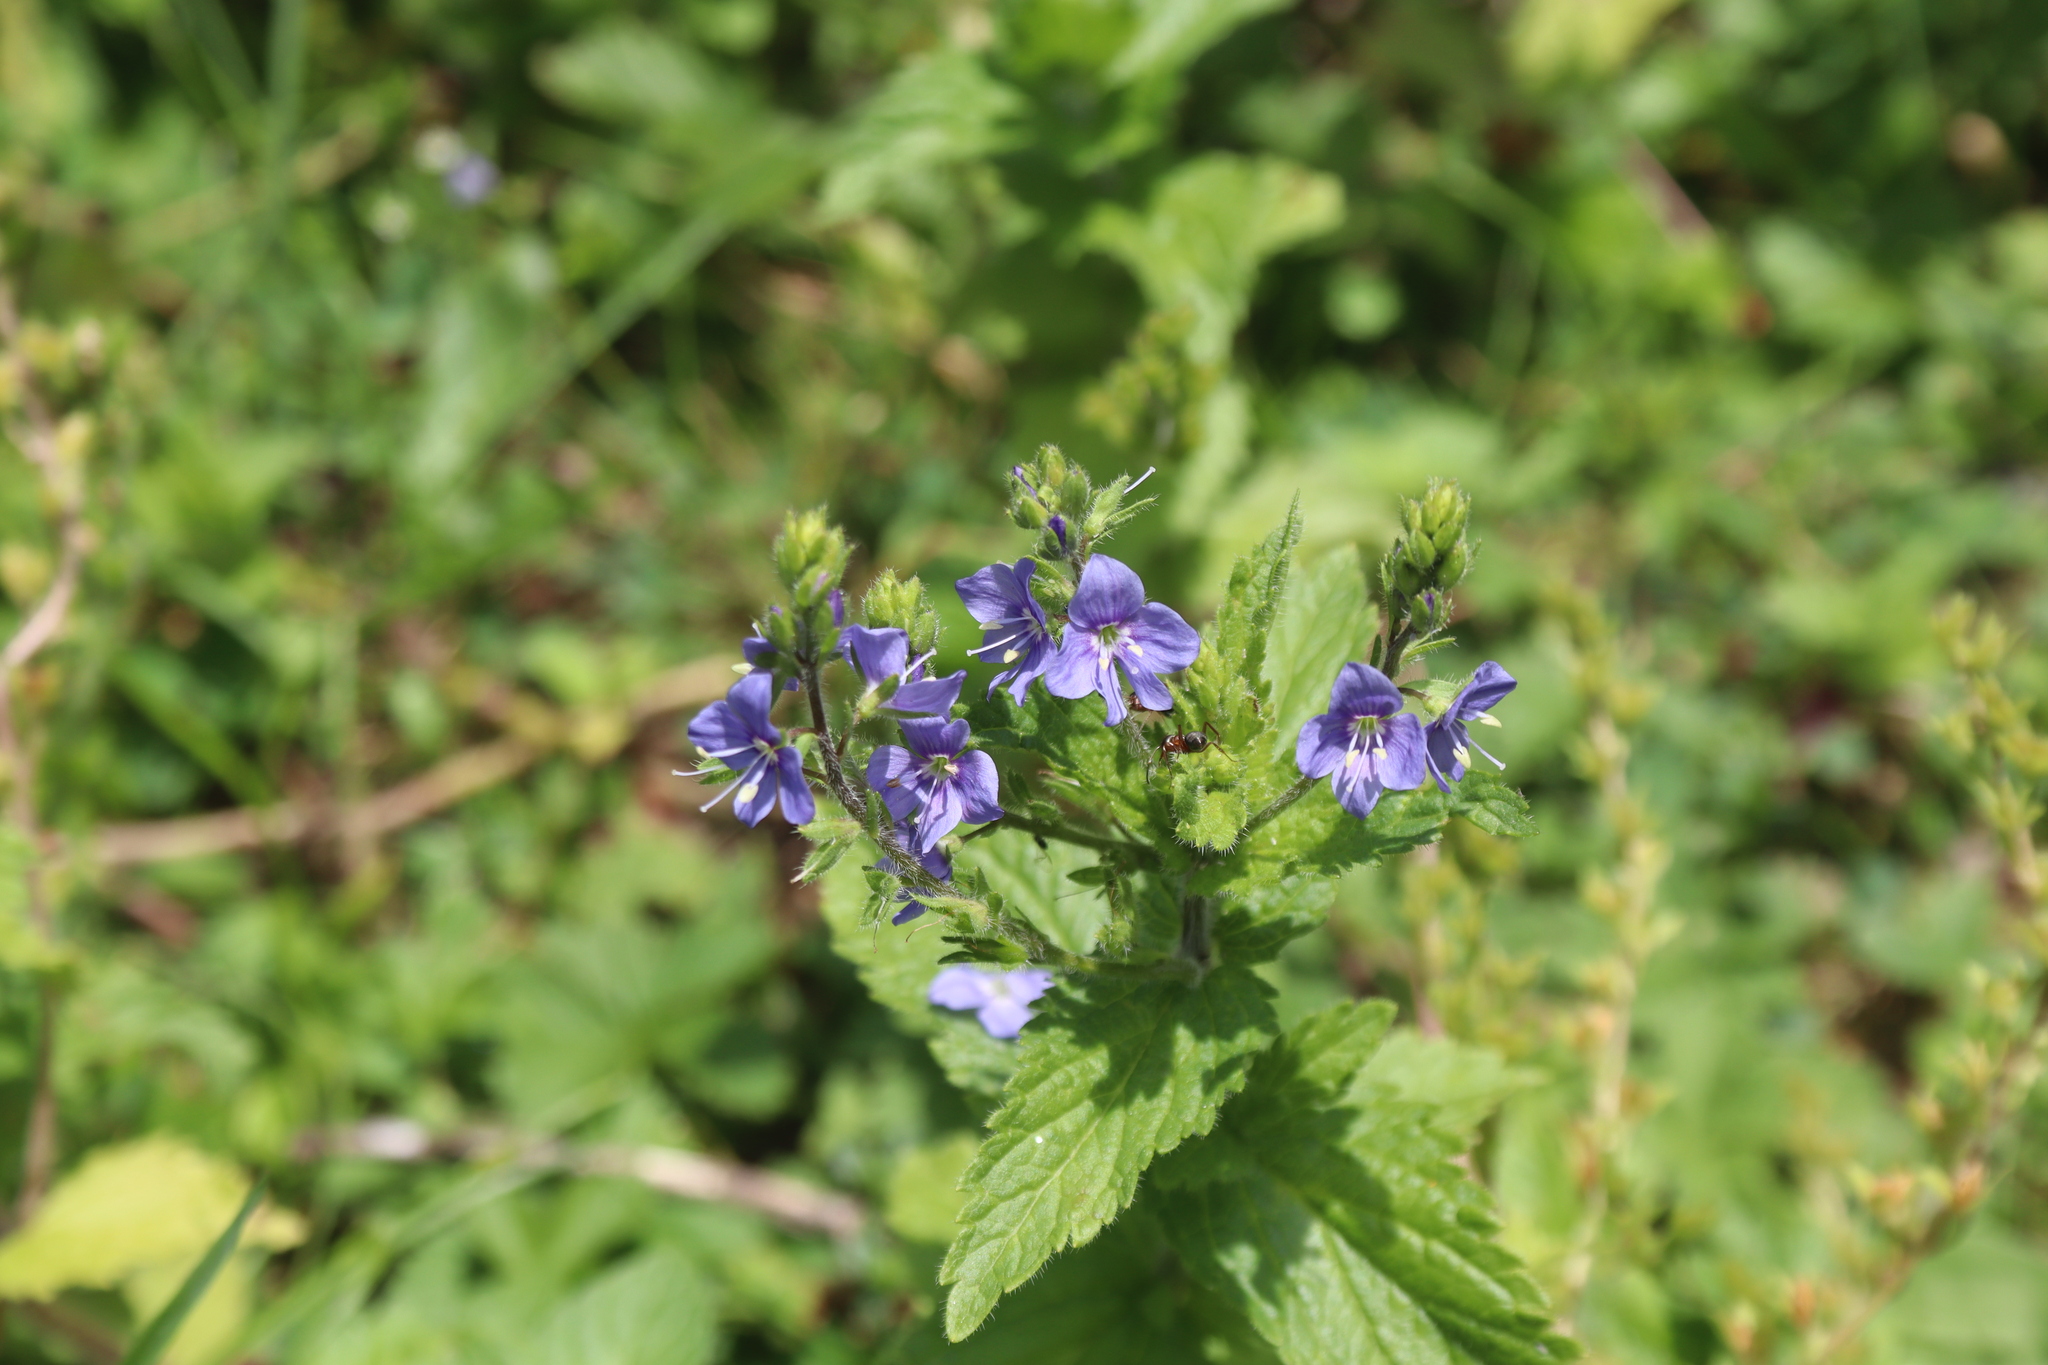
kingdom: Plantae
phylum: Tracheophyta
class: Magnoliopsida
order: Lamiales
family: Plantaginaceae
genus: Veronica
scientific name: Veronica laxa
